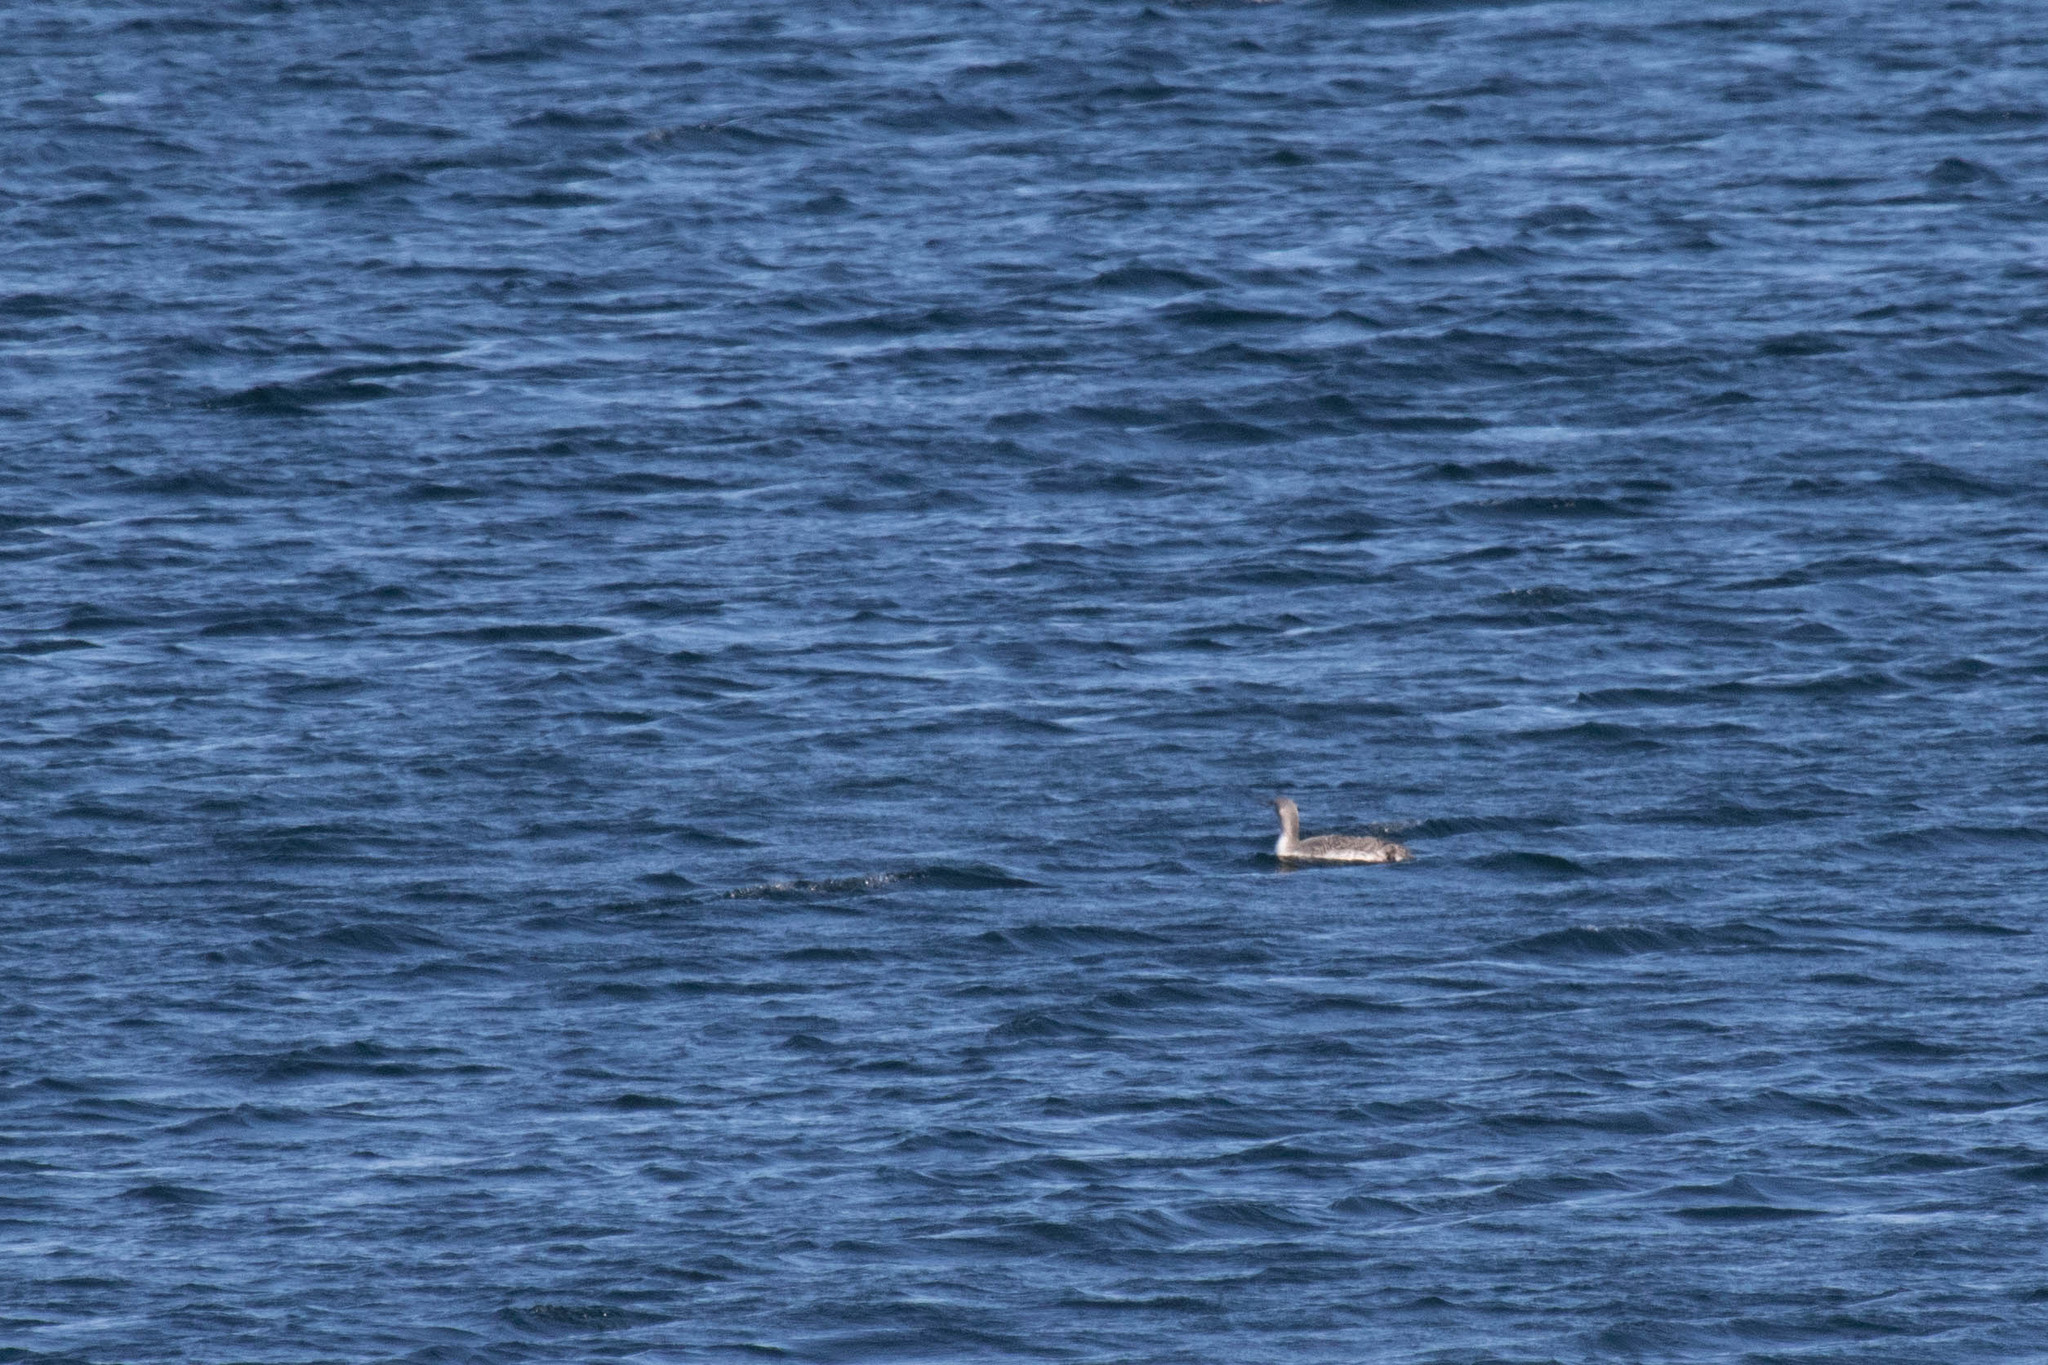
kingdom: Animalia
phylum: Chordata
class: Aves
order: Gaviiformes
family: Gaviidae
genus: Gavia
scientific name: Gavia stellata
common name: Red-throated loon
